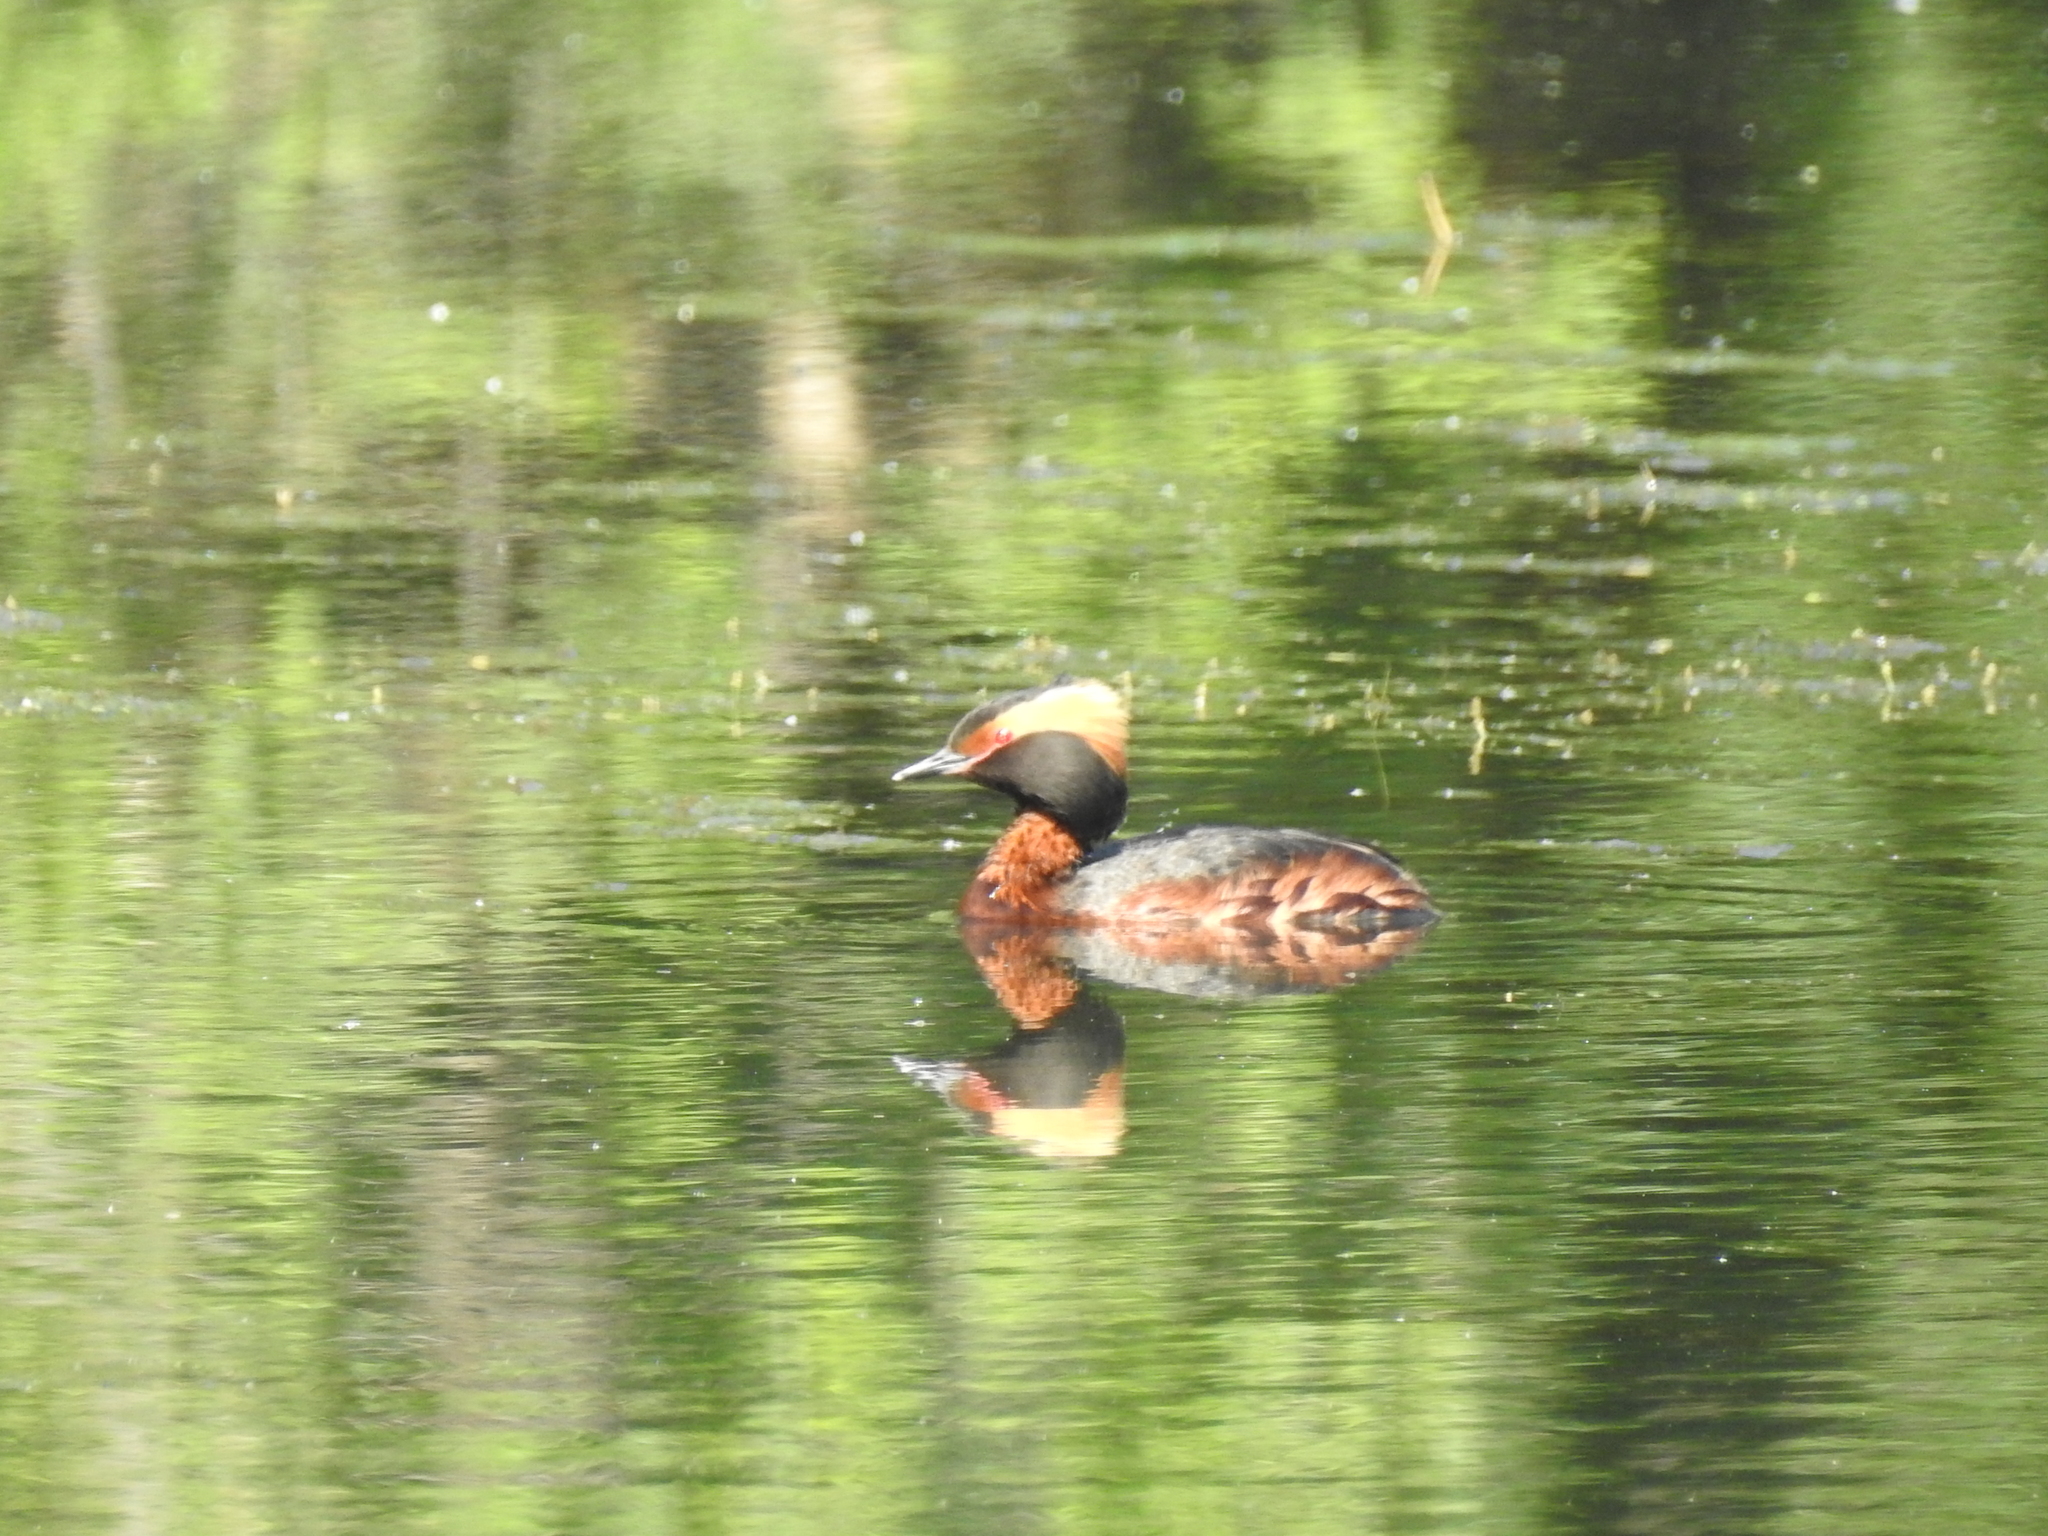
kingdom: Animalia
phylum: Chordata
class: Aves
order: Podicipediformes
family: Podicipedidae
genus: Podiceps
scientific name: Podiceps auritus
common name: Horned grebe
